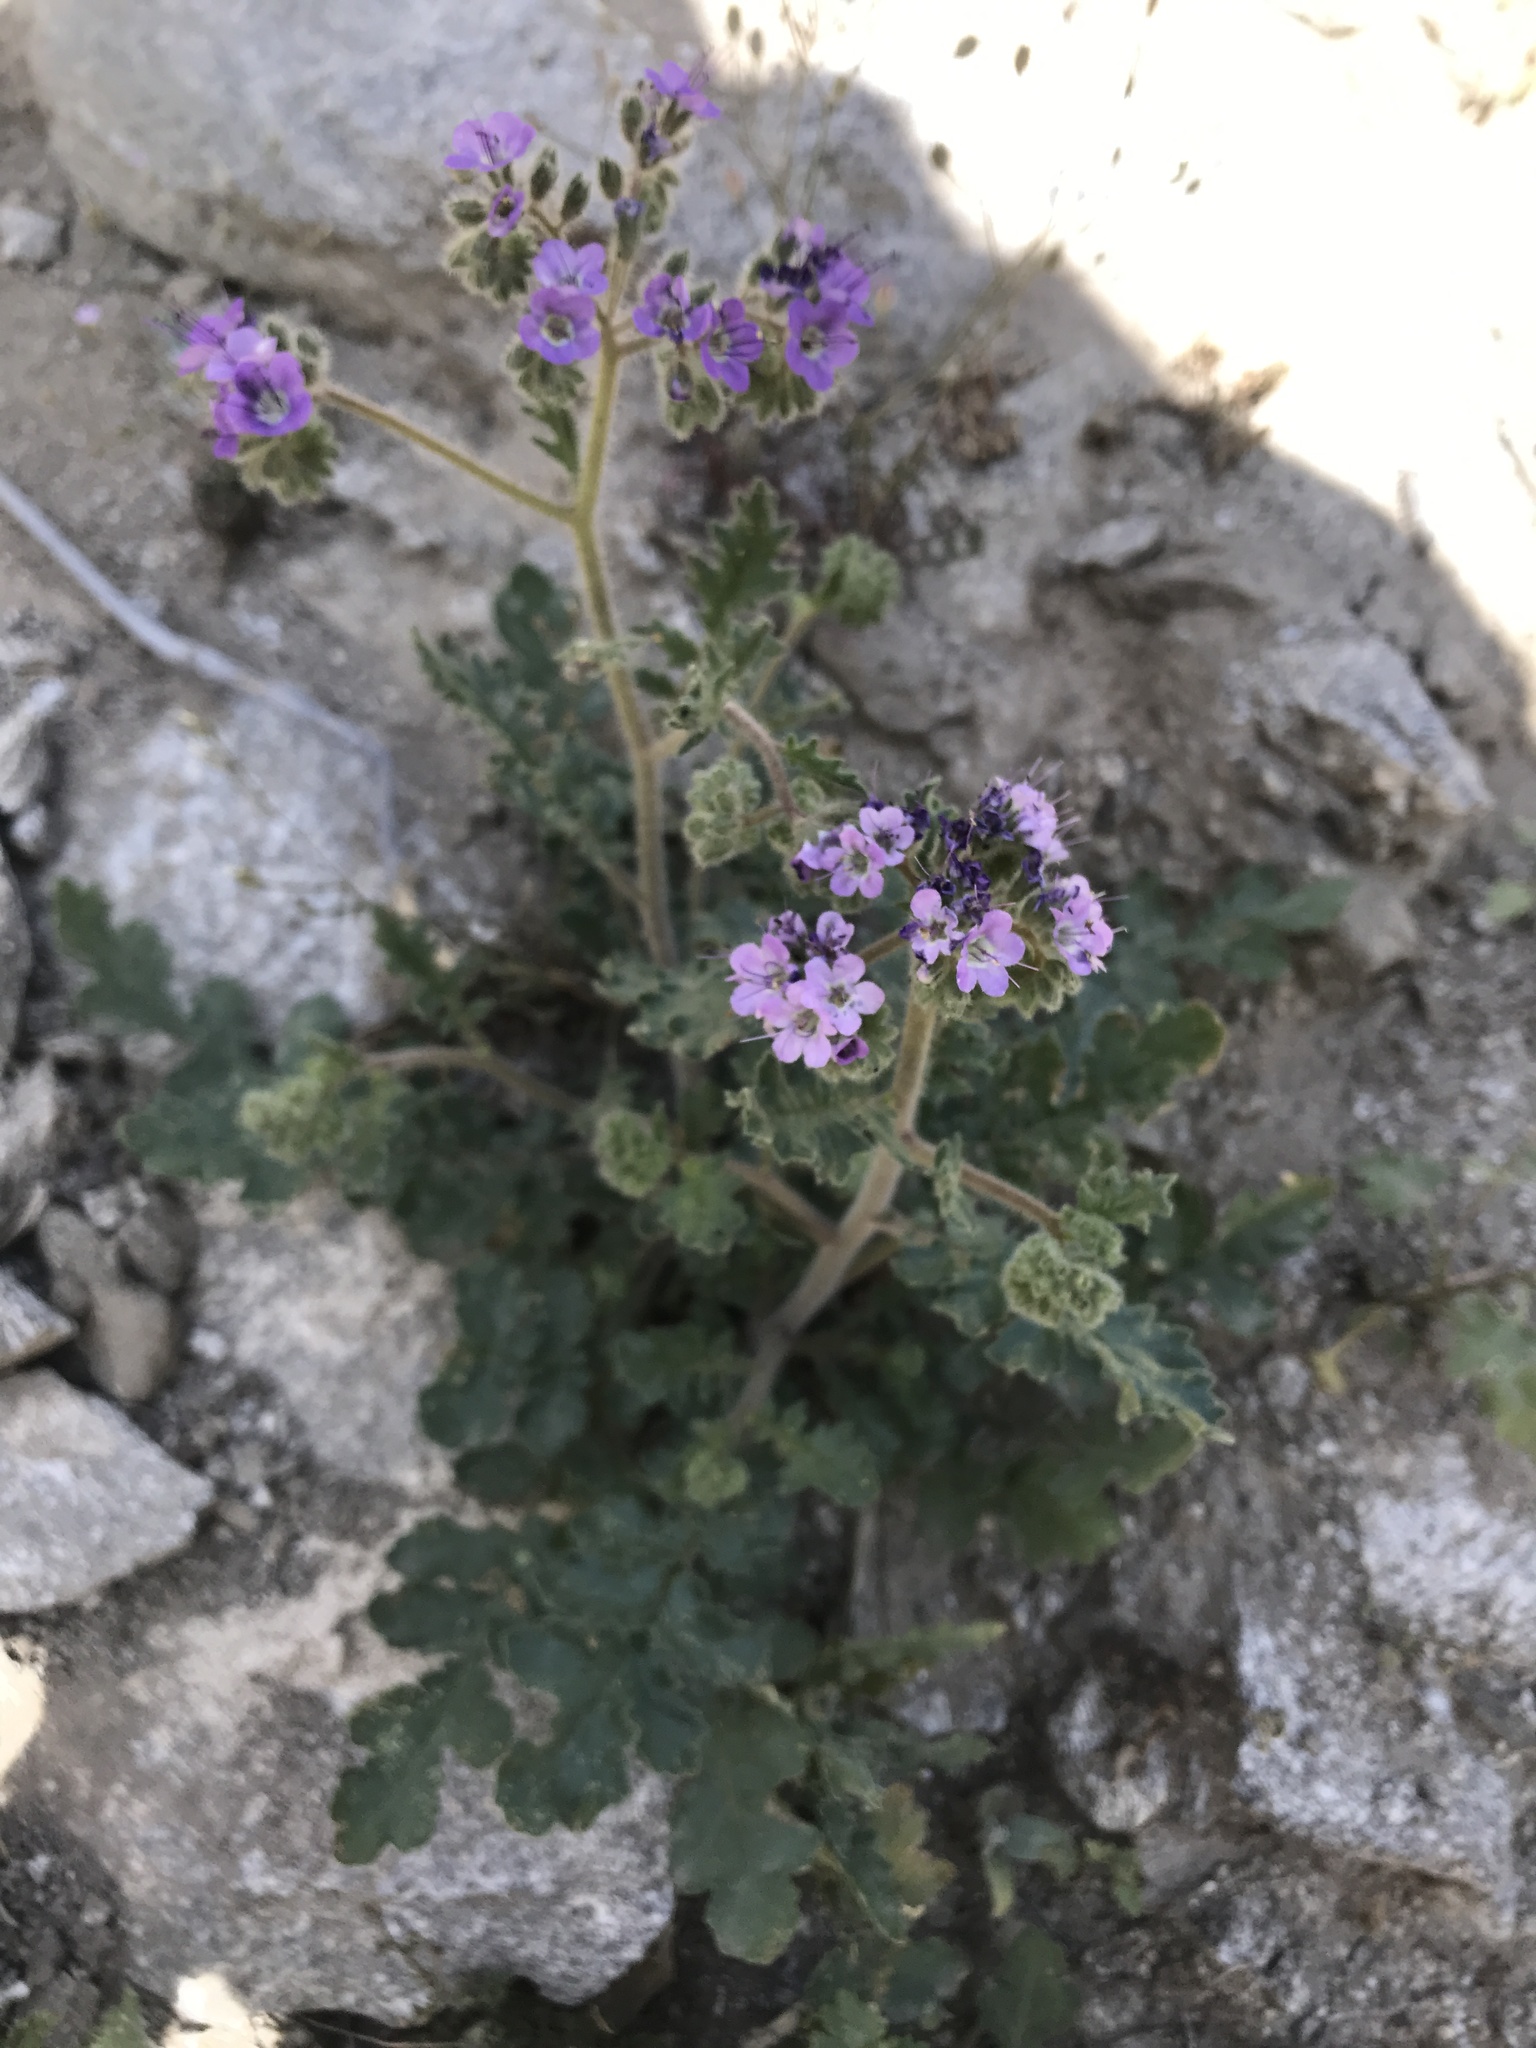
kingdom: Plantae
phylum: Tracheophyta
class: Magnoliopsida
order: Boraginales
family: Hydrophyllaceae
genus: Phacelia
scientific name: Phacelia crenulata
